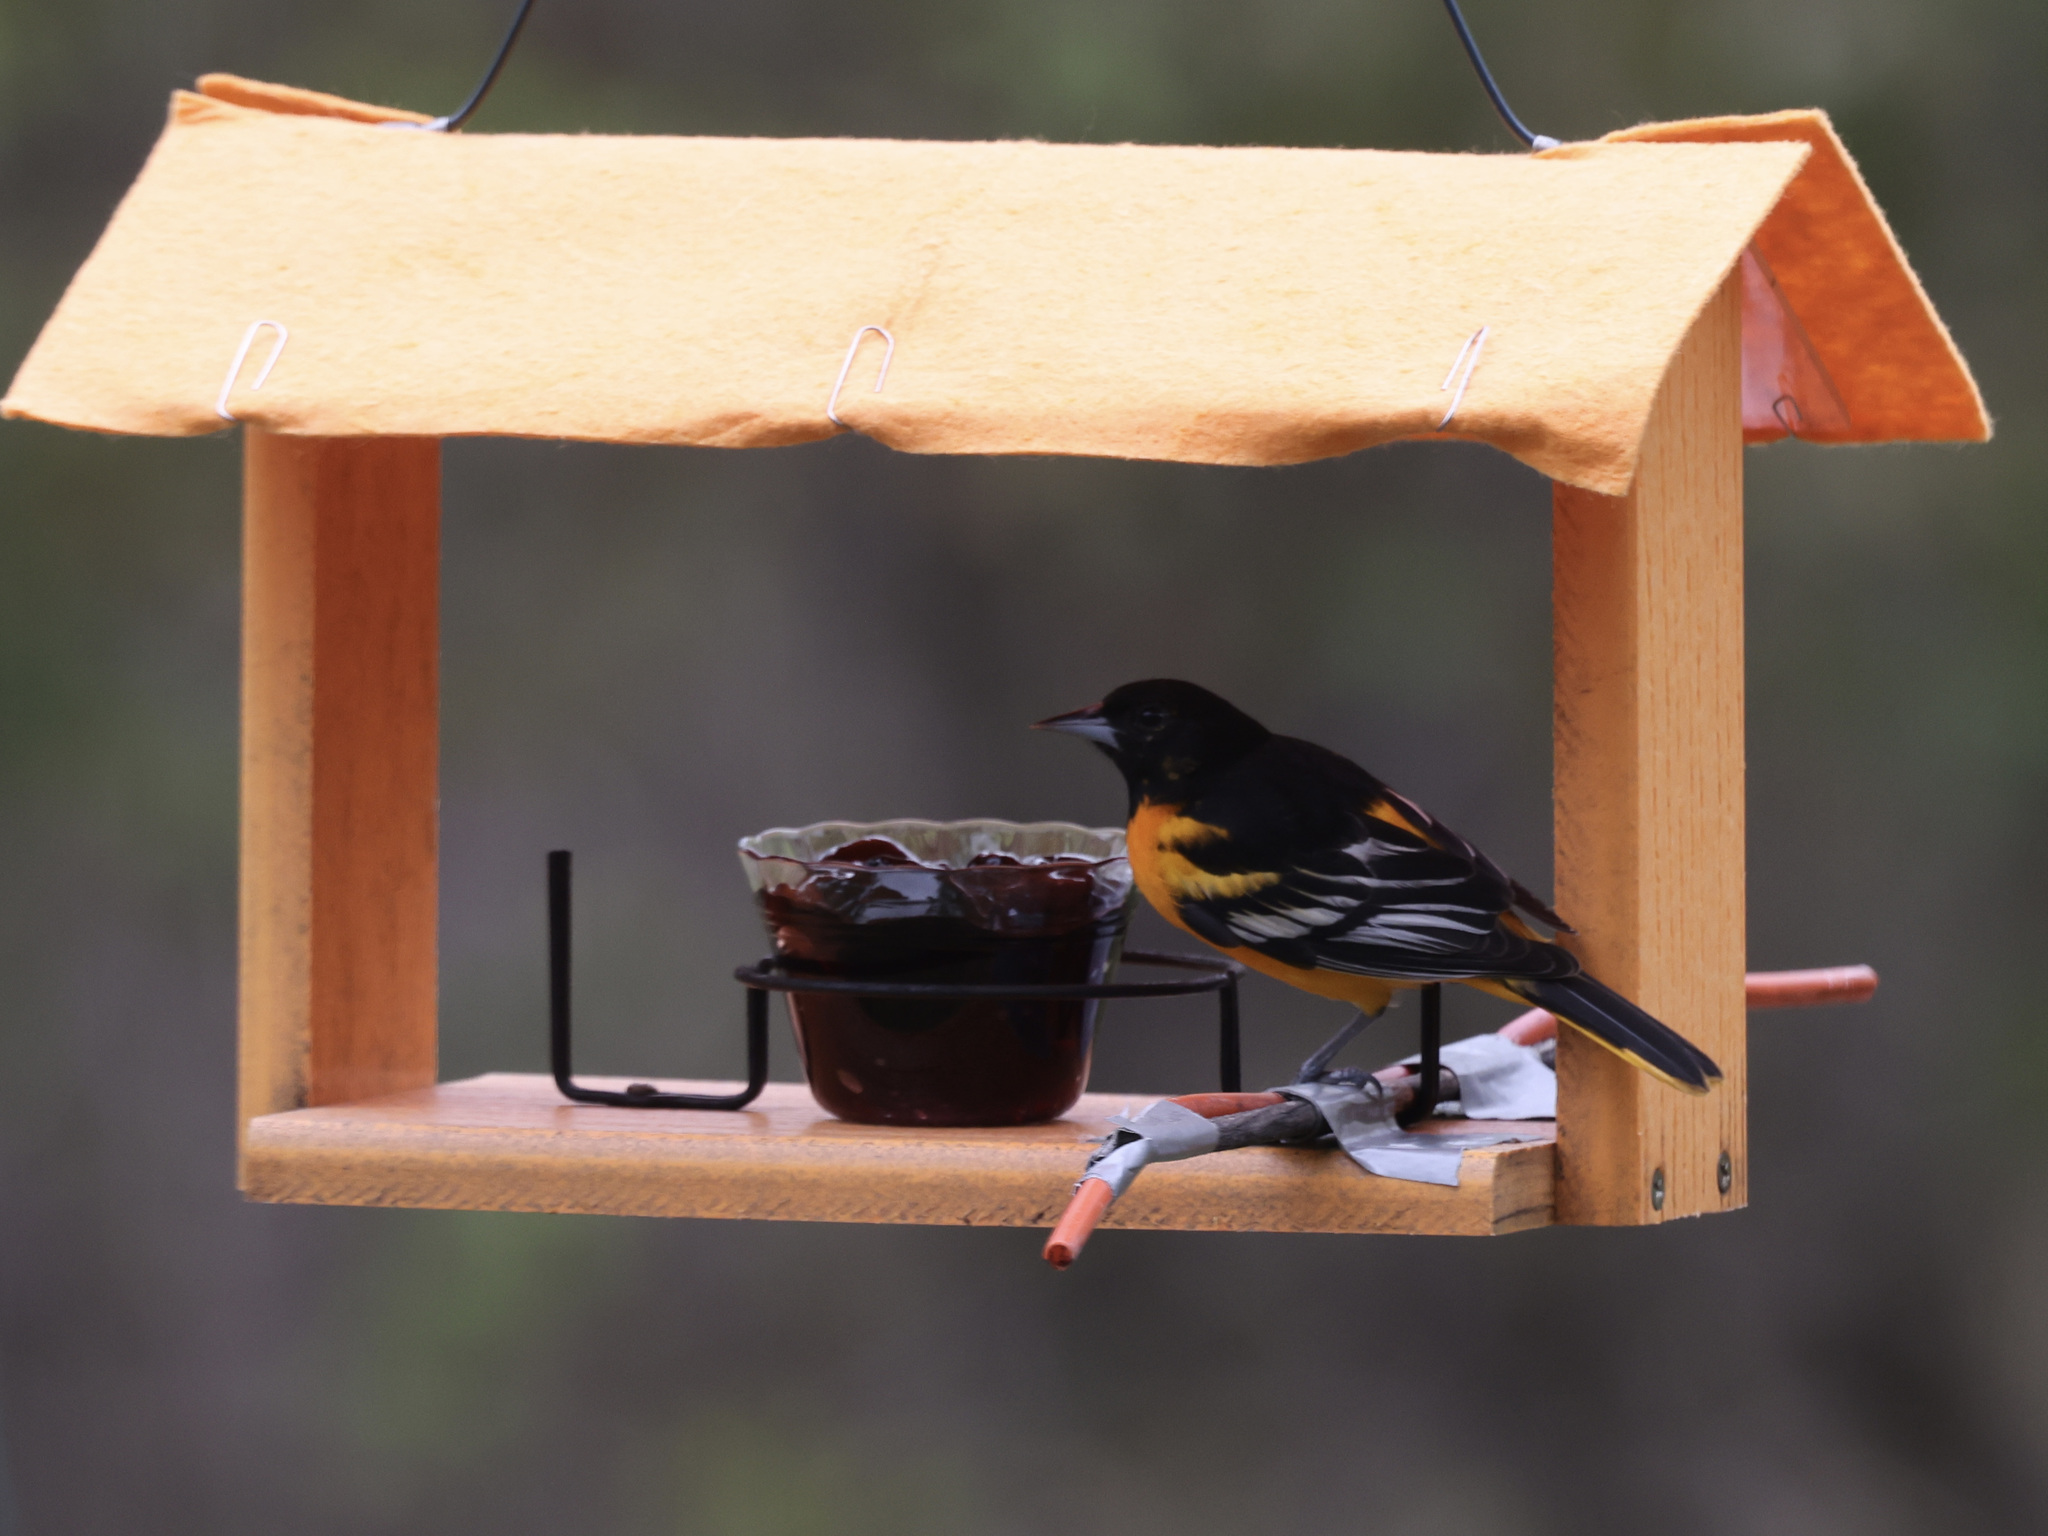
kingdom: Animalia
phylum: Chordata
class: Aves
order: Passeriformes
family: Icteridae
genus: Icterus
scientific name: Icterus galbula
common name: Baltimore oriole
